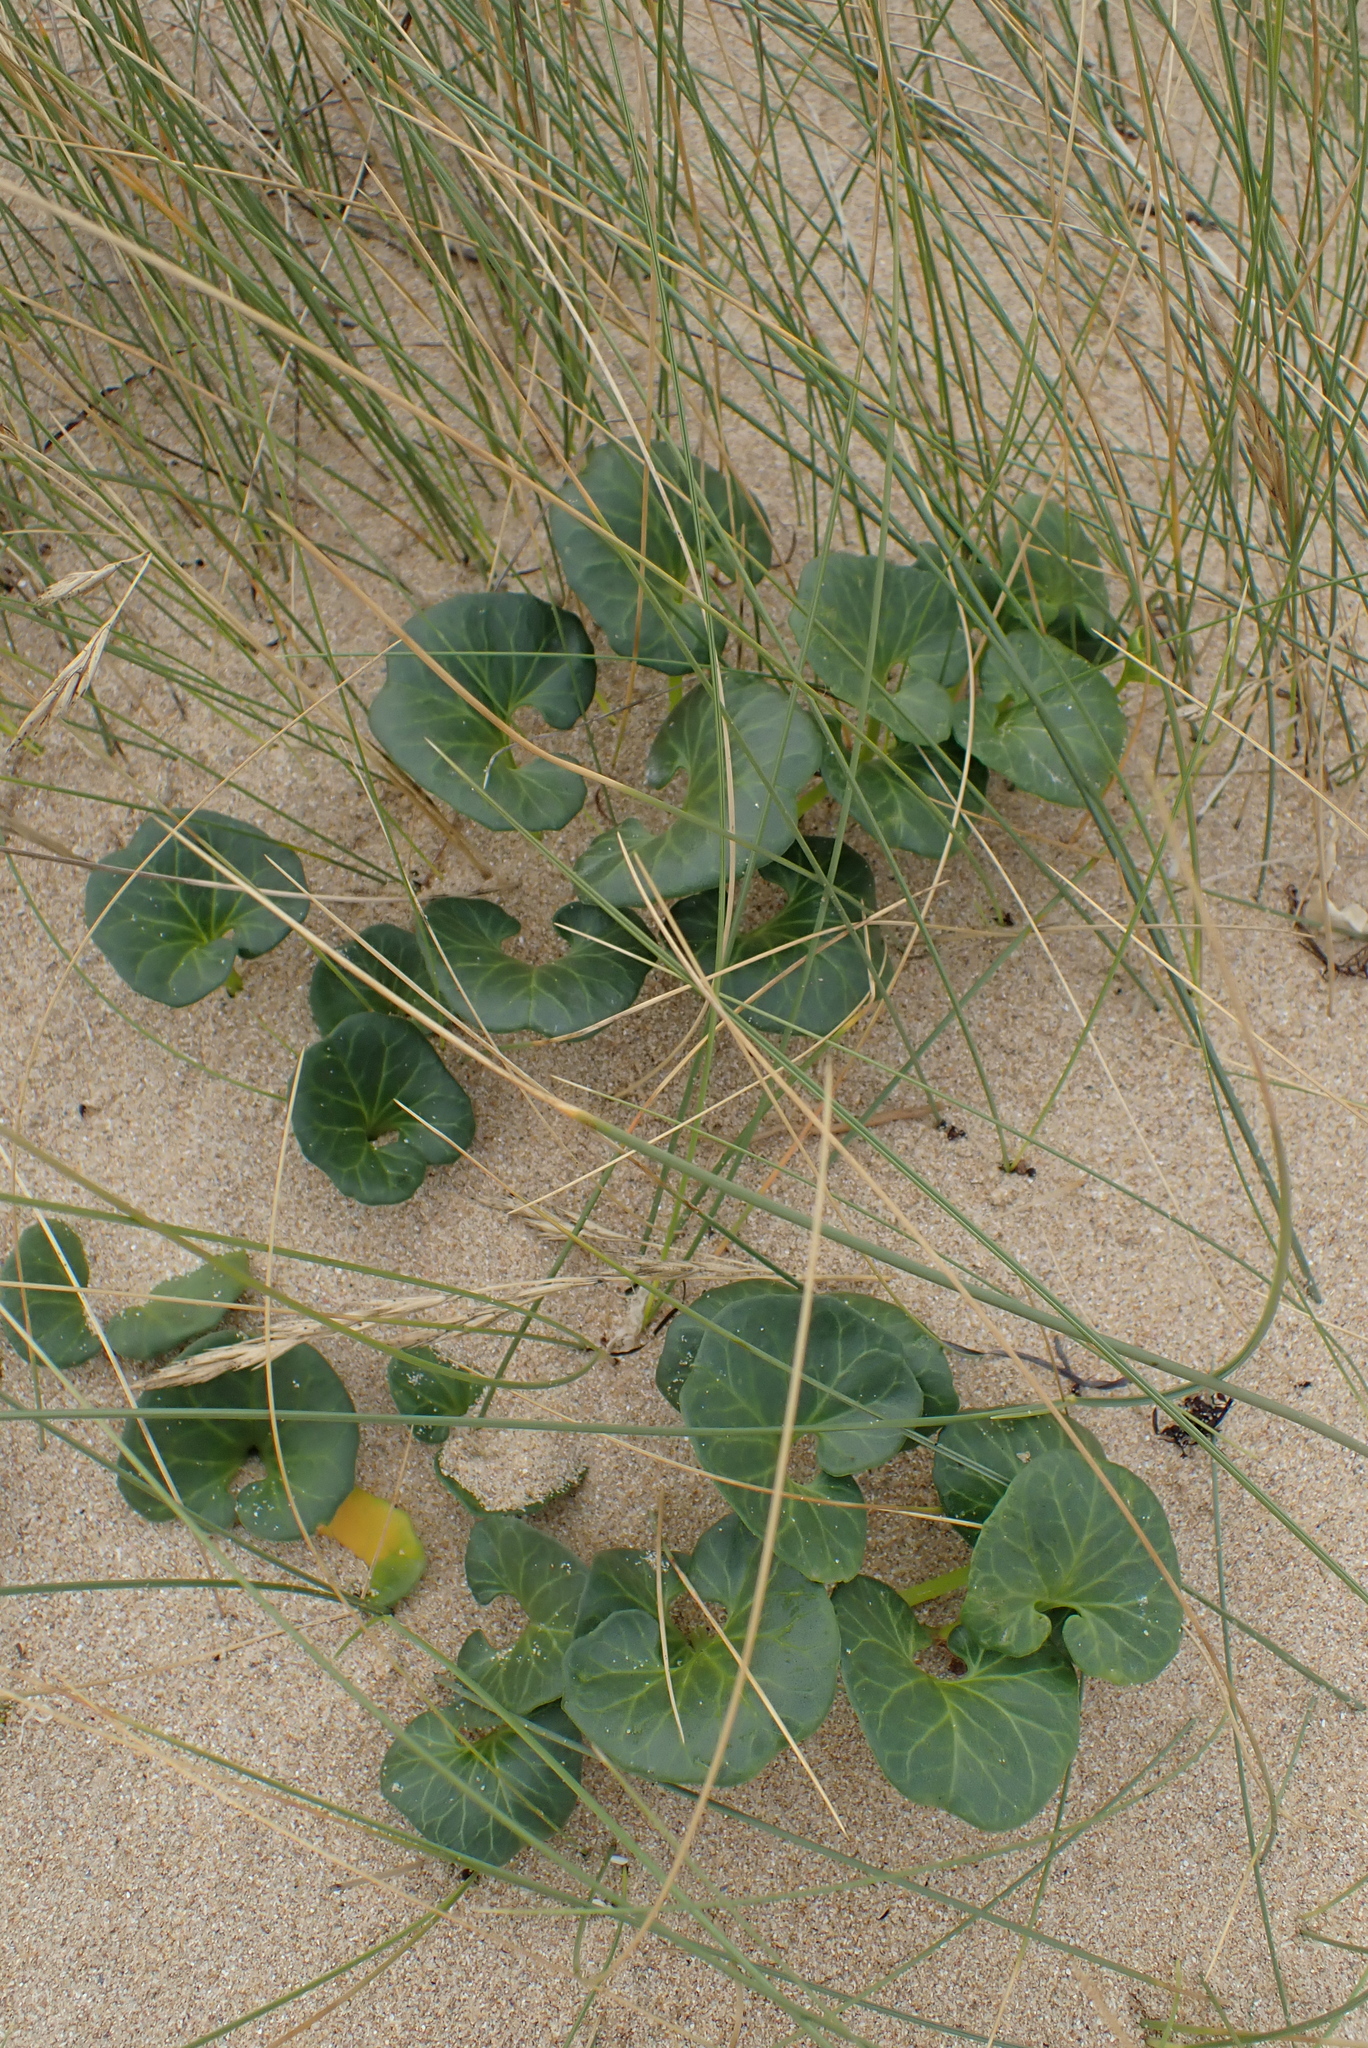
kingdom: Plantae
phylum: Tracheophyta
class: Magnoliopsida
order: Solanales
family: Convolvulaceae
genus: Calystegia
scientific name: Calystegia soldanella
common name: Sea bindweed
